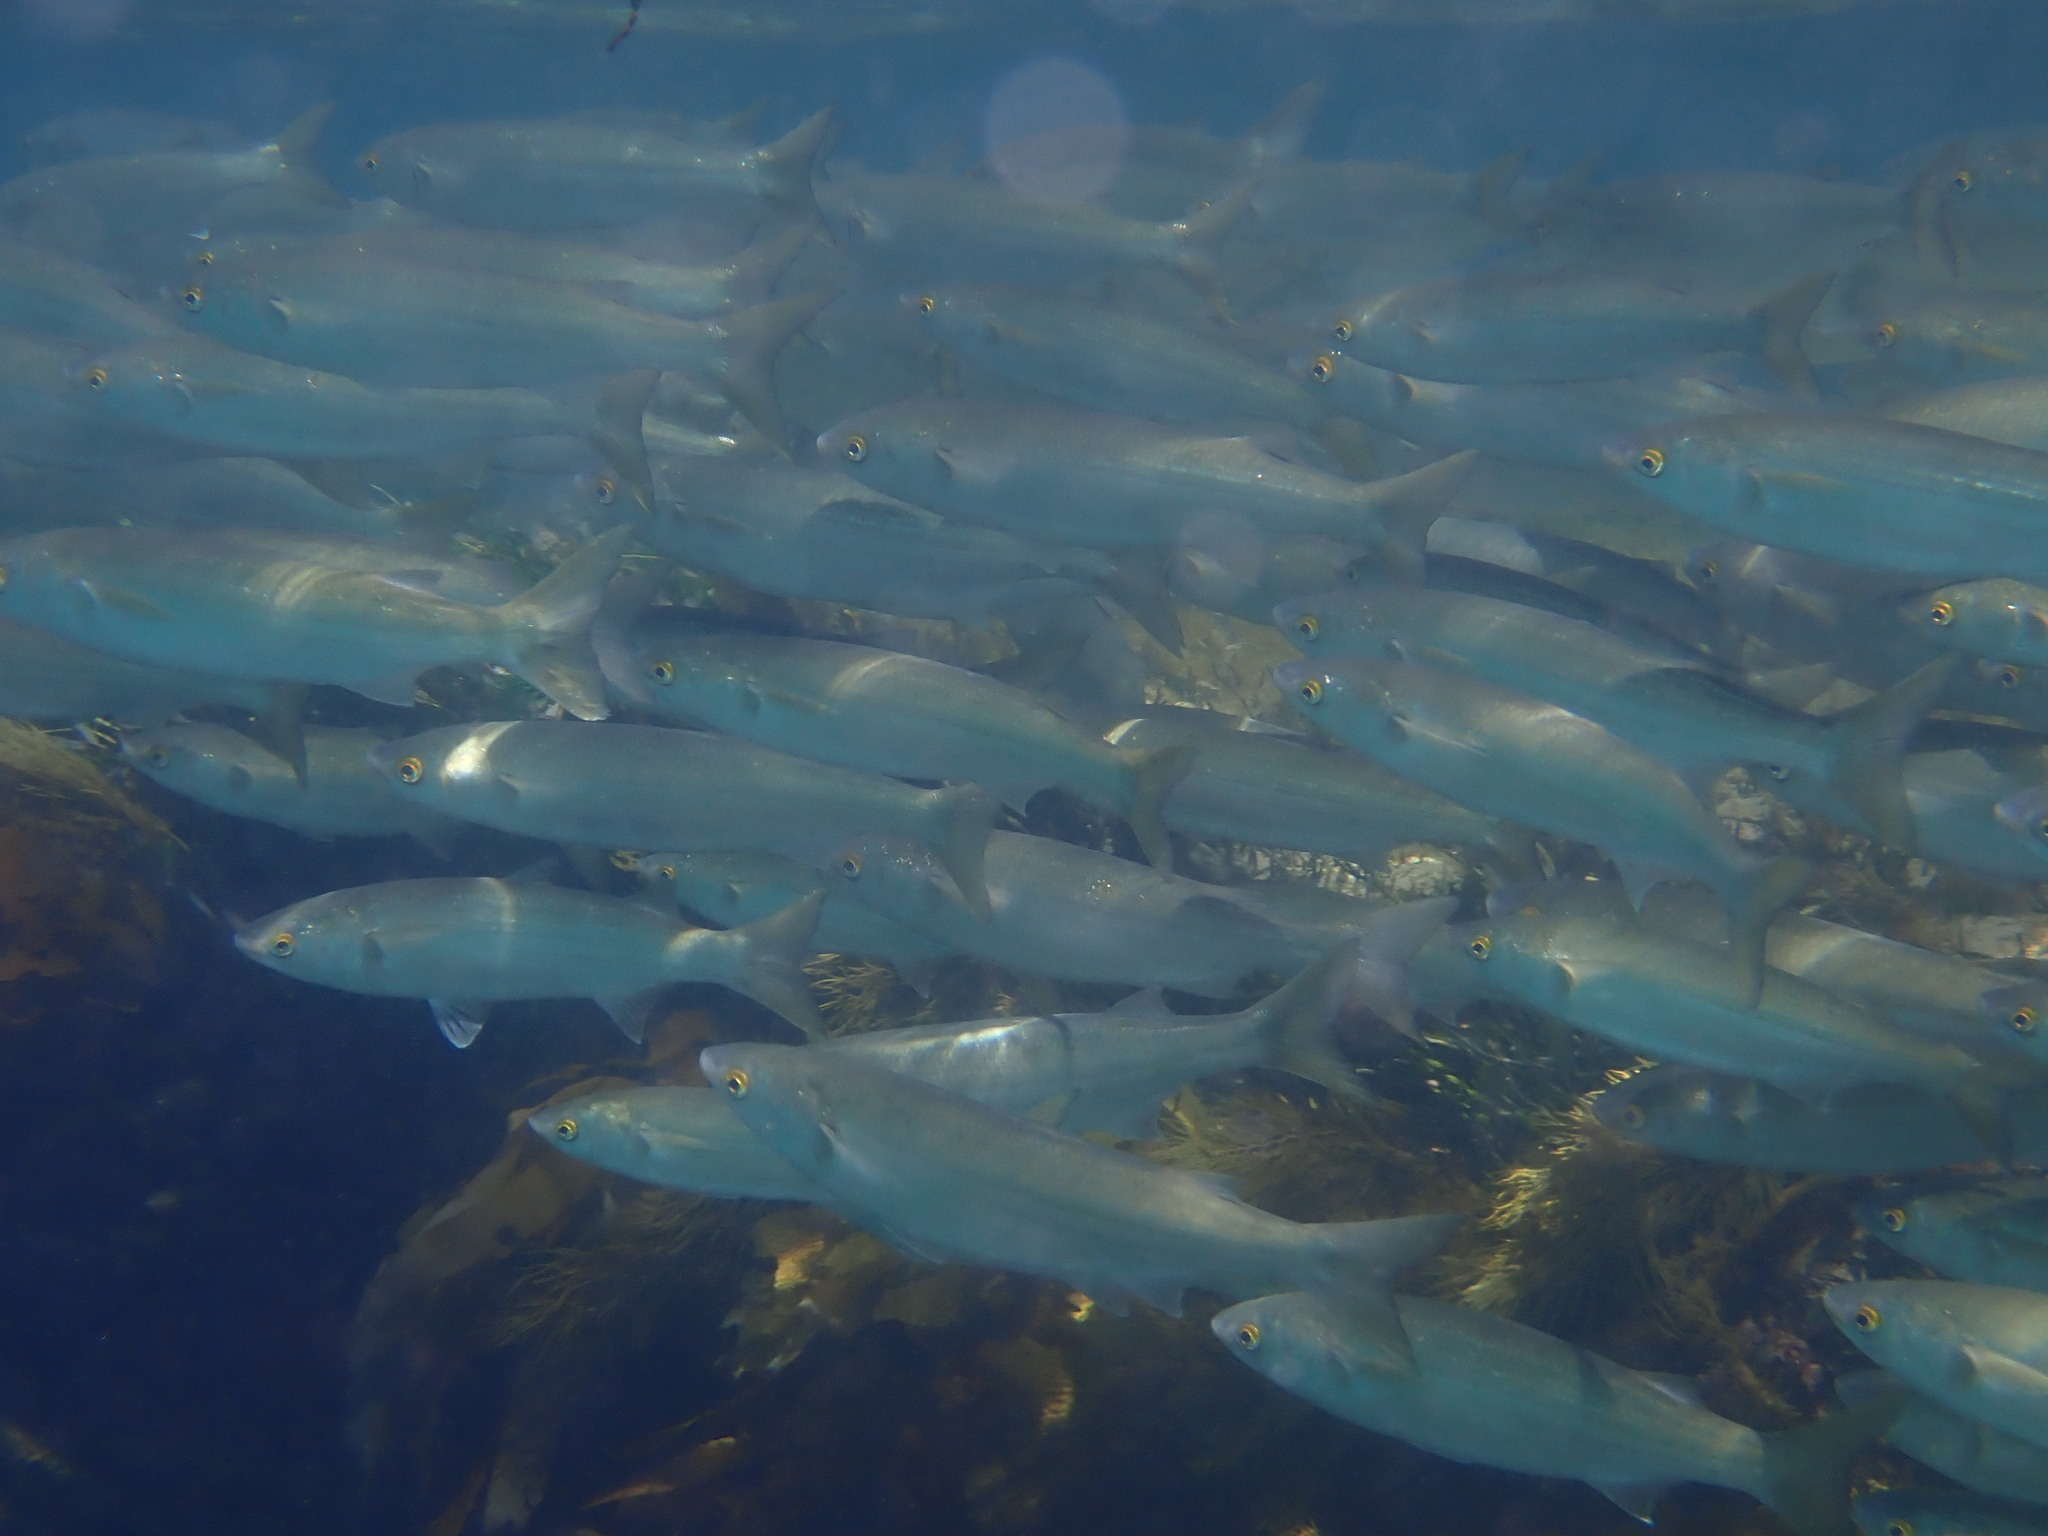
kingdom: Animalia
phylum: Chordata
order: Mugiliformes
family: Mugilidae
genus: Aldrichetta
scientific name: Aldrichetta forsteri
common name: Yellow-eye mullet
